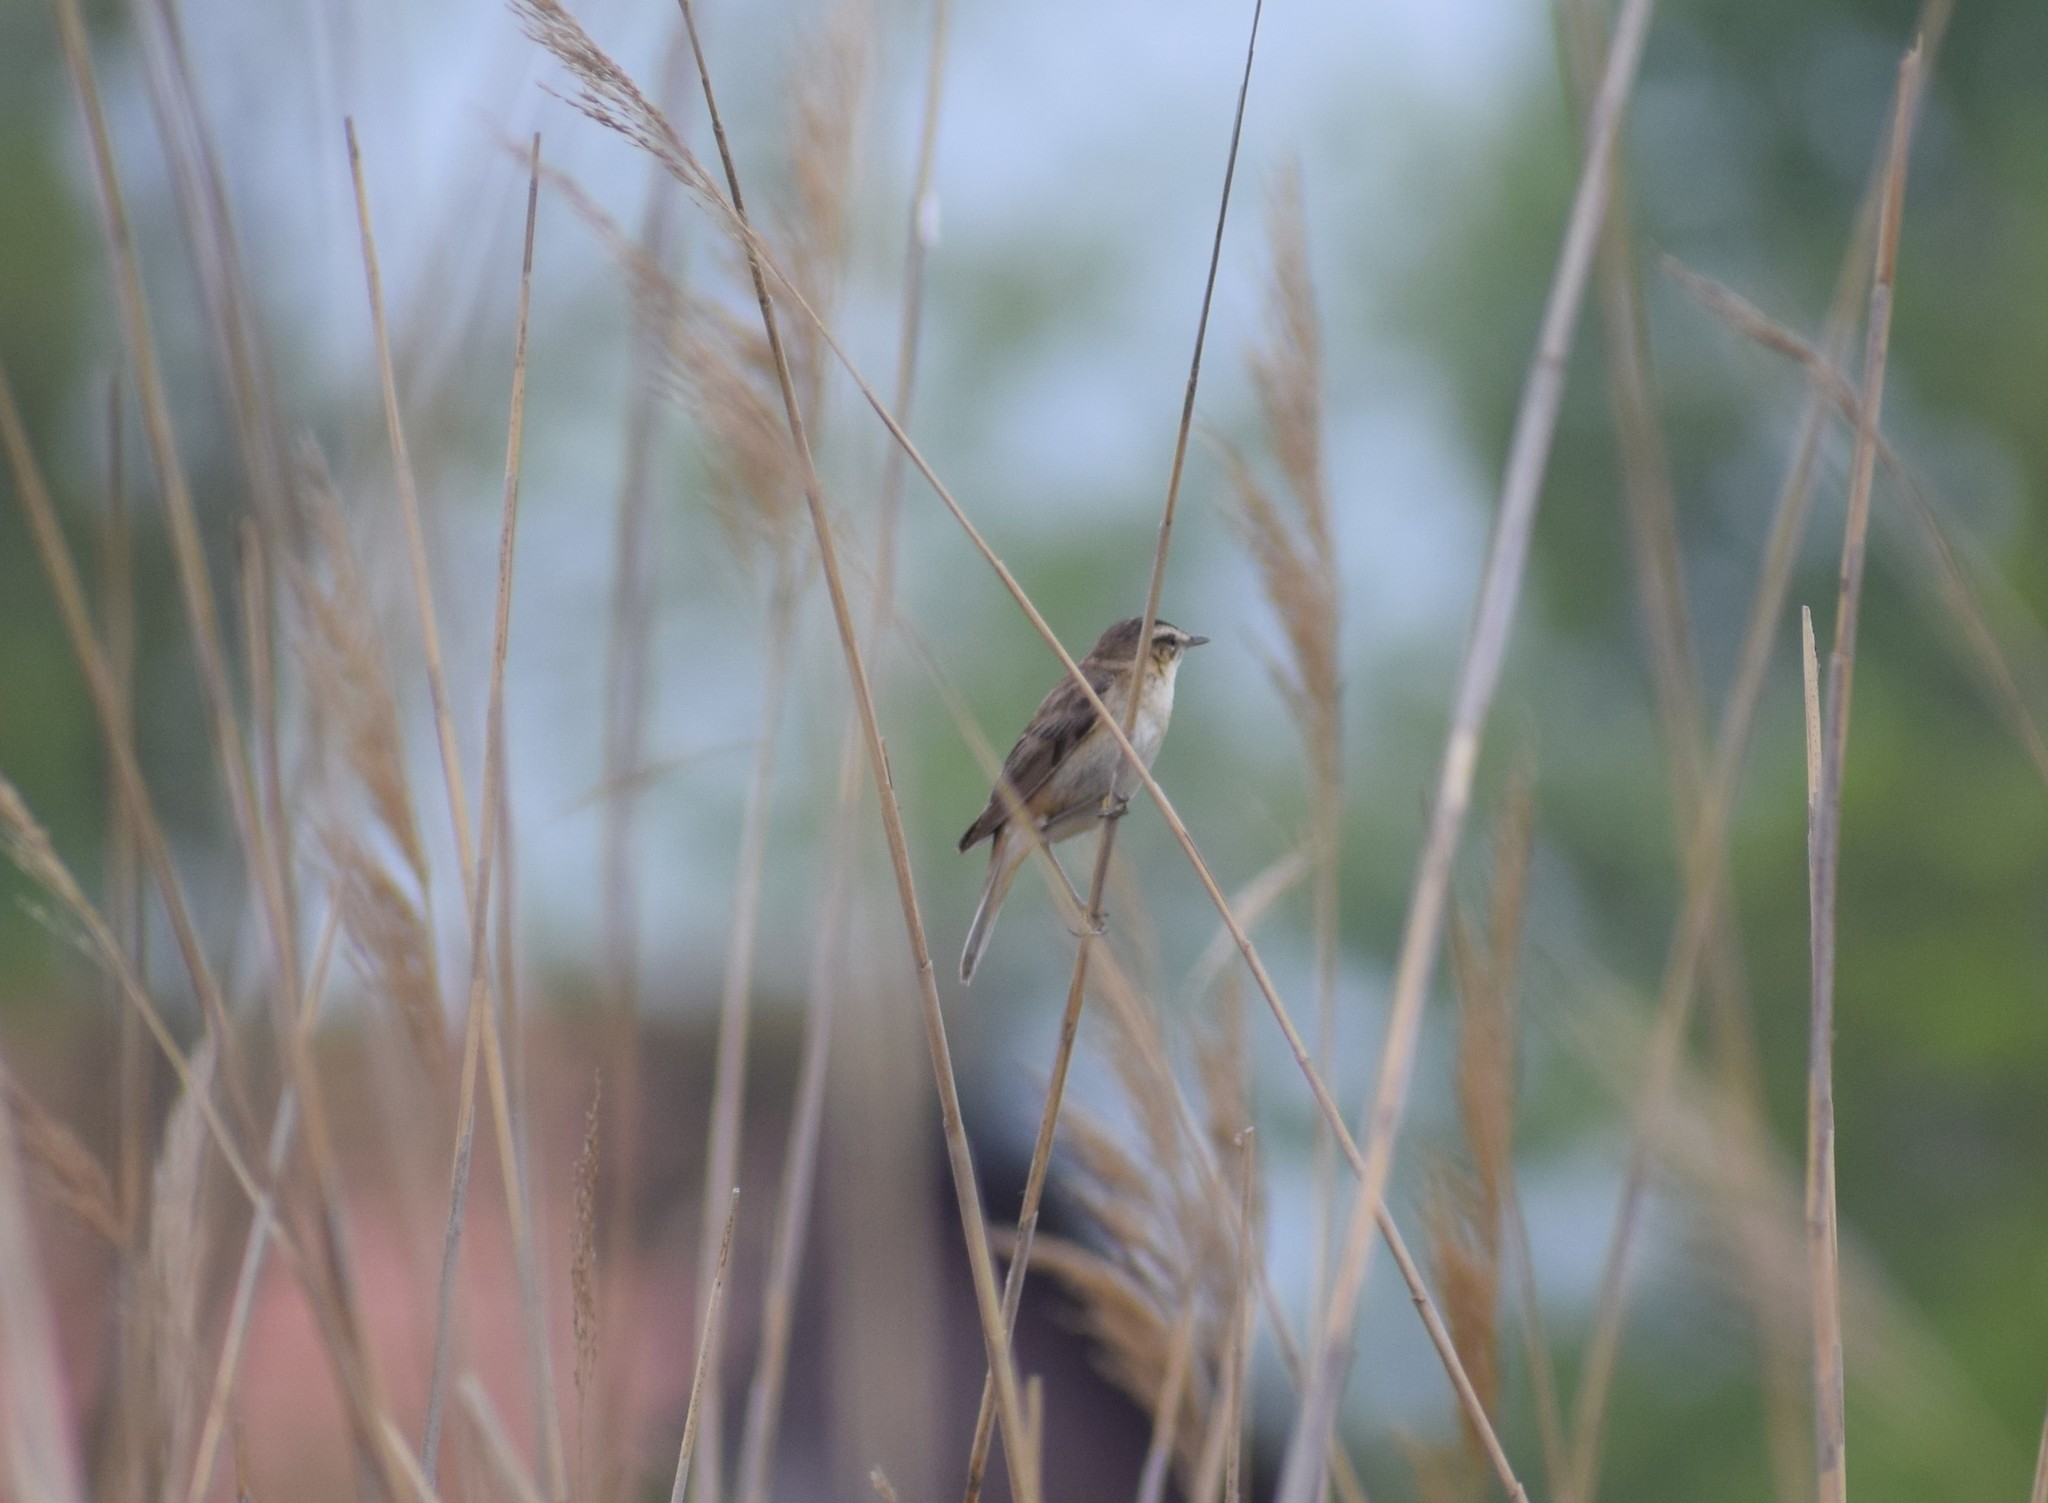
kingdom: Animalia
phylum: Chordata
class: Aves
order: Passeriformes
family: Acrocephalidae
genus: Acrocephalus
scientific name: Acrocephalus schoenobaenus
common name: Sedge warbler
